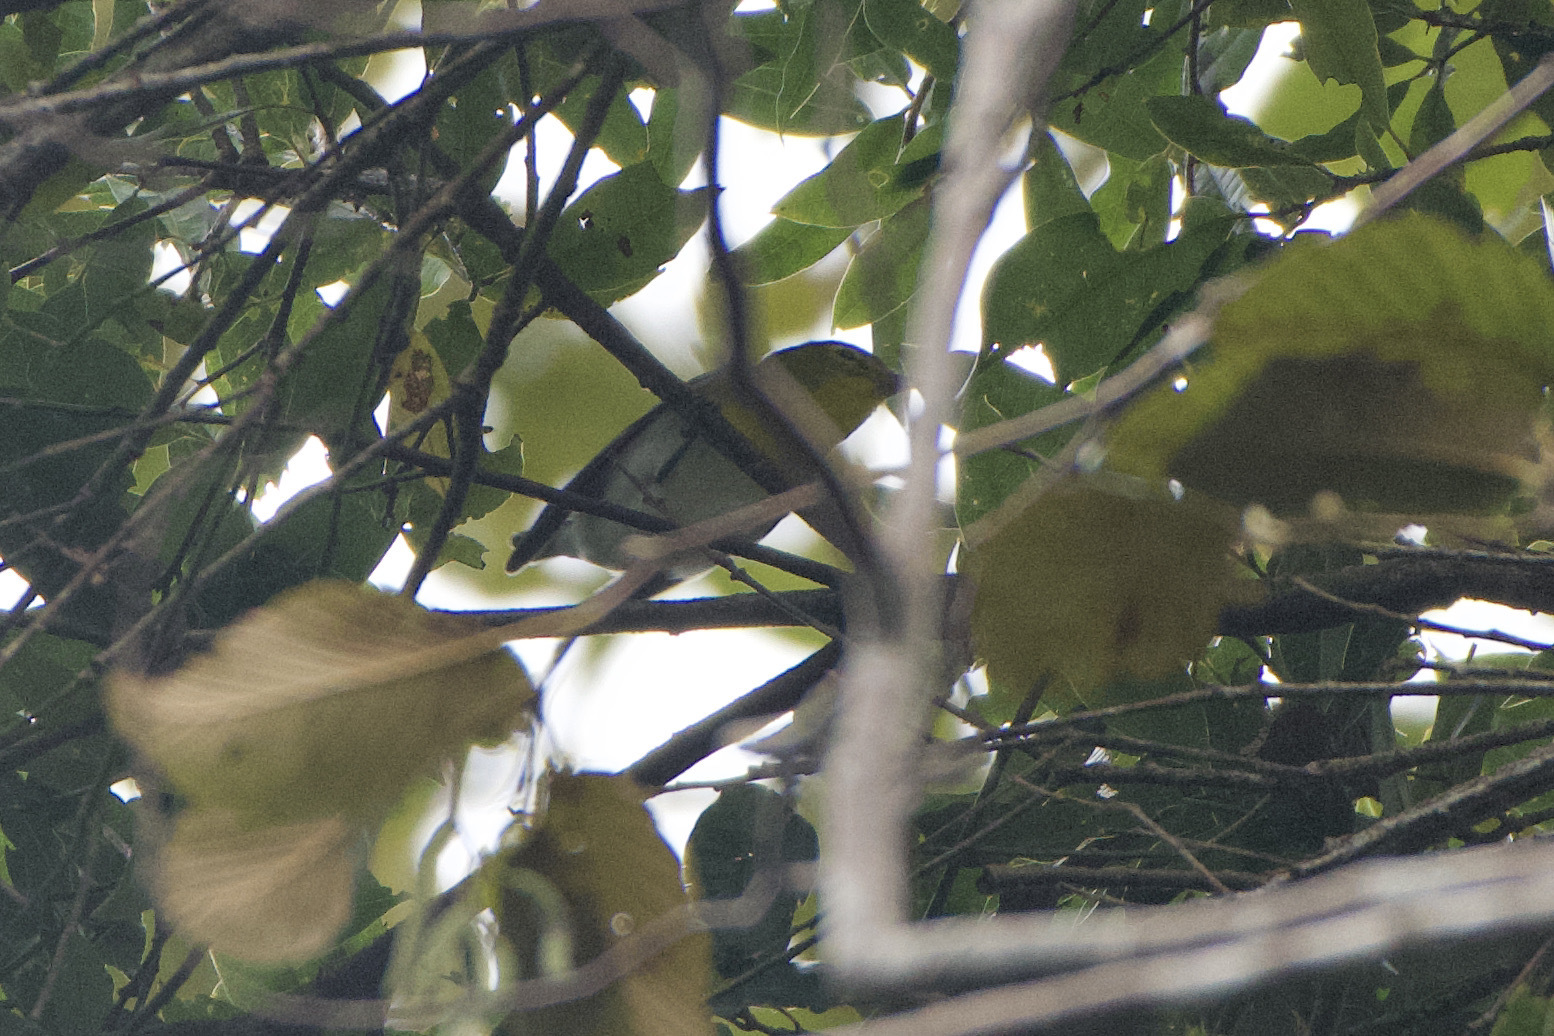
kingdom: Animalia
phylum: Chordata
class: Aves
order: Passeriformes
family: Vireonidae
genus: Vireo
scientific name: Vireo flavifrons
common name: Yellow-throated vireo
